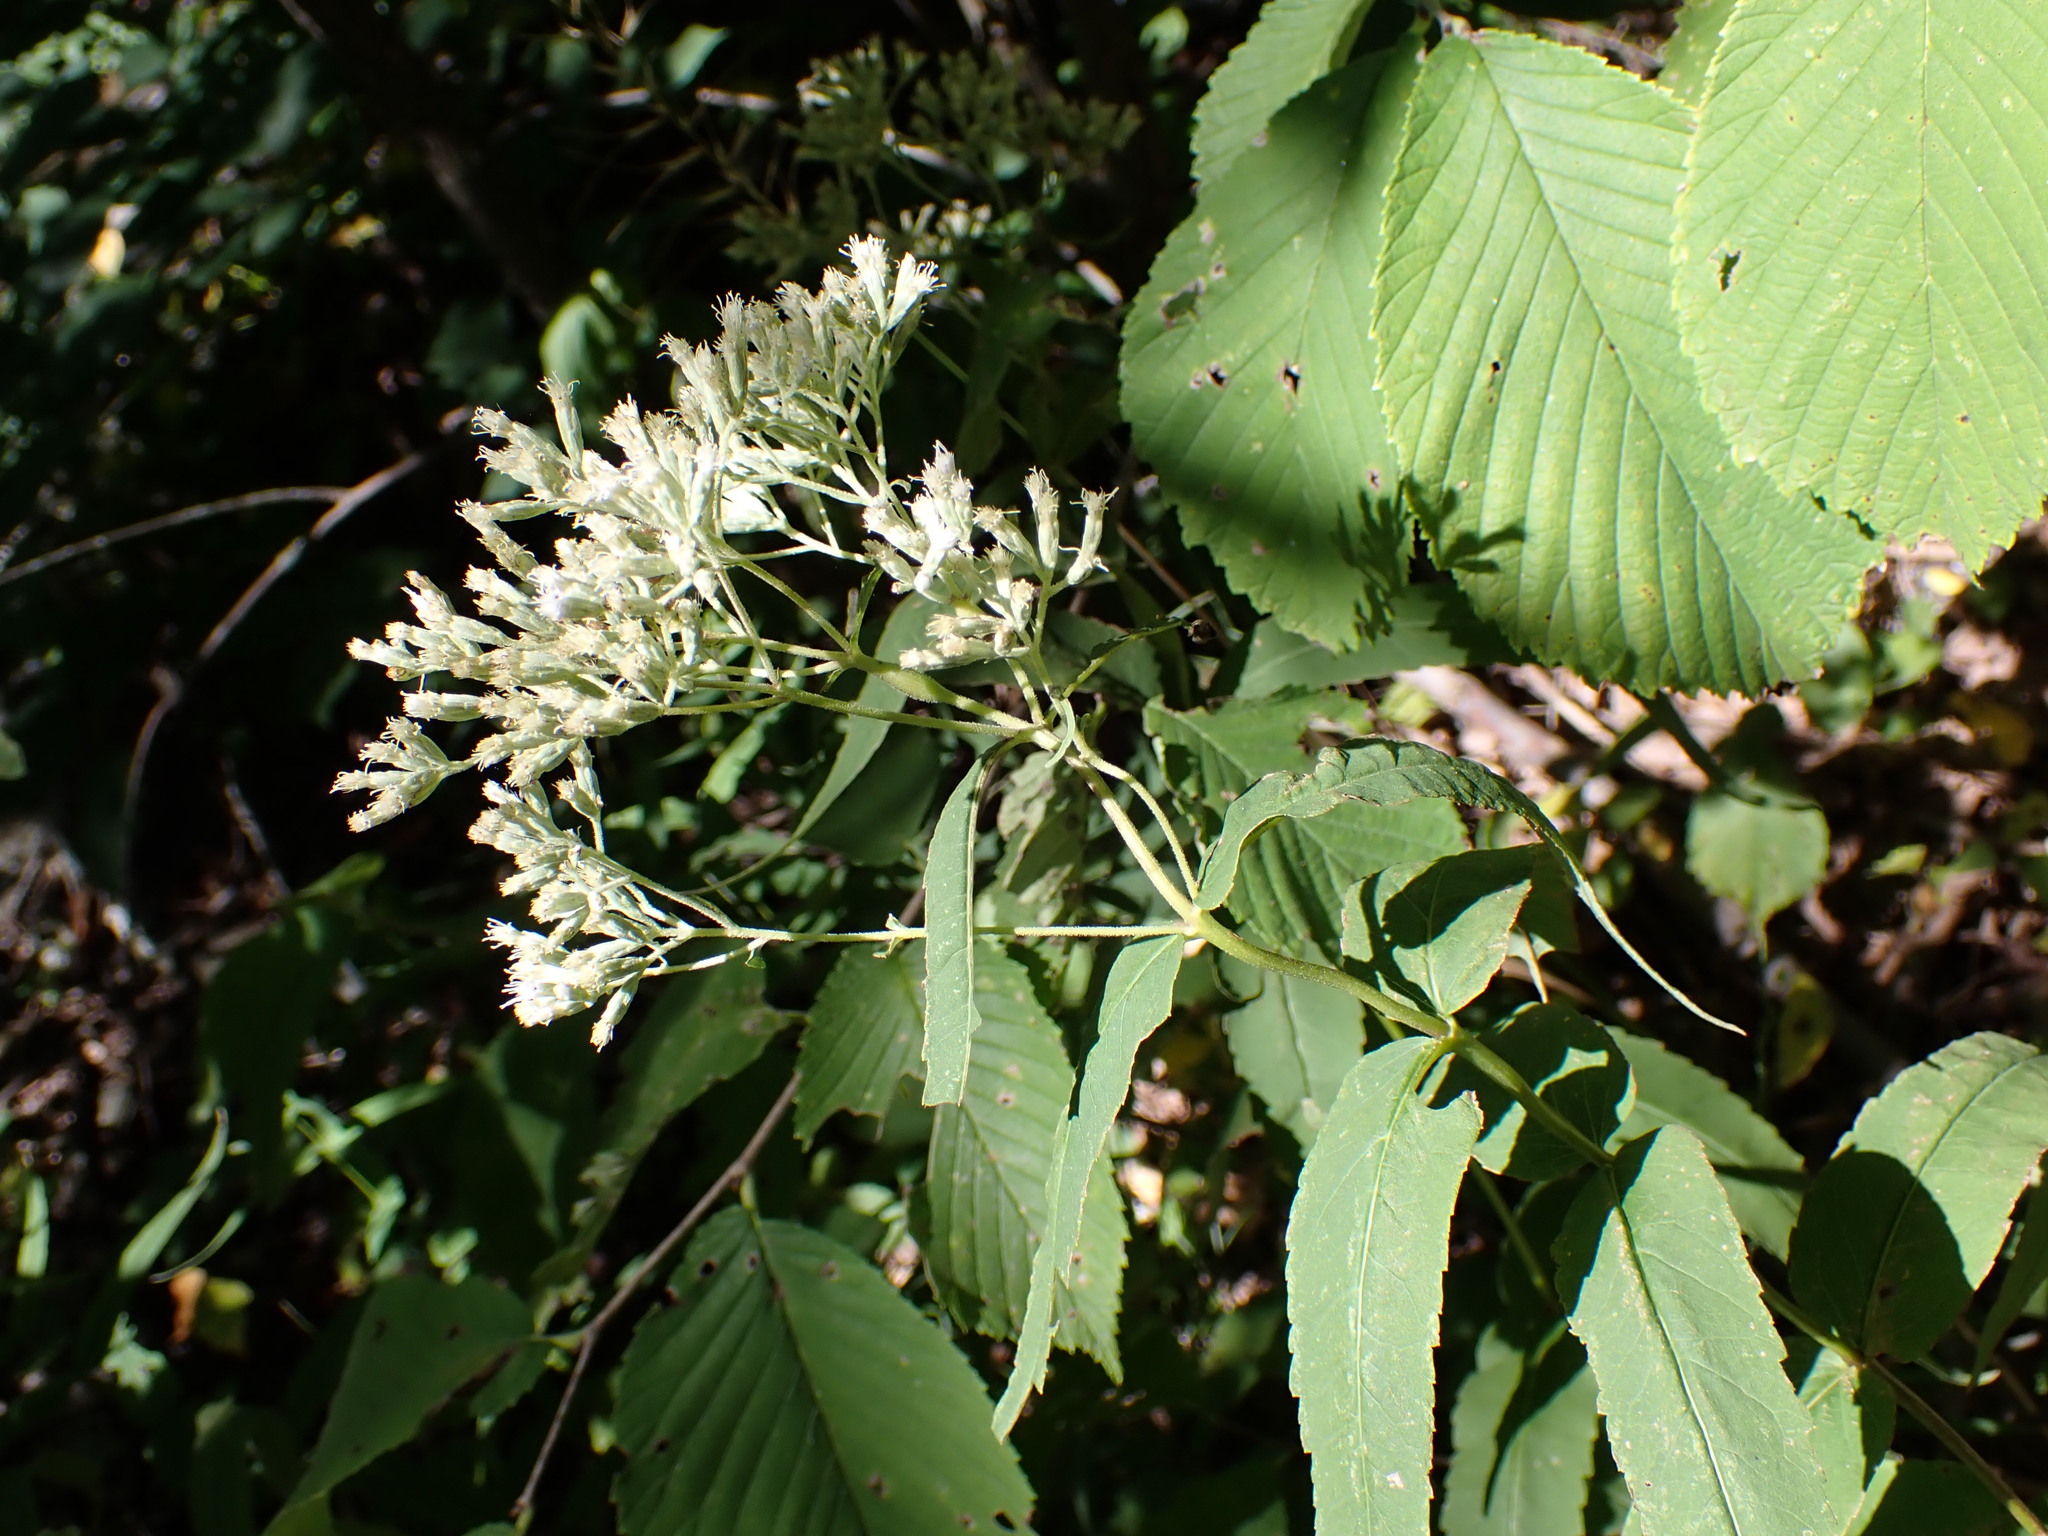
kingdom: Plantae
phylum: Tracheophyta
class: Magnoliopsida
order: Asterales
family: Asteraceae
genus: Eupatorium
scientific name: Eupatorium sessilifolium
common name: Upland boneset
